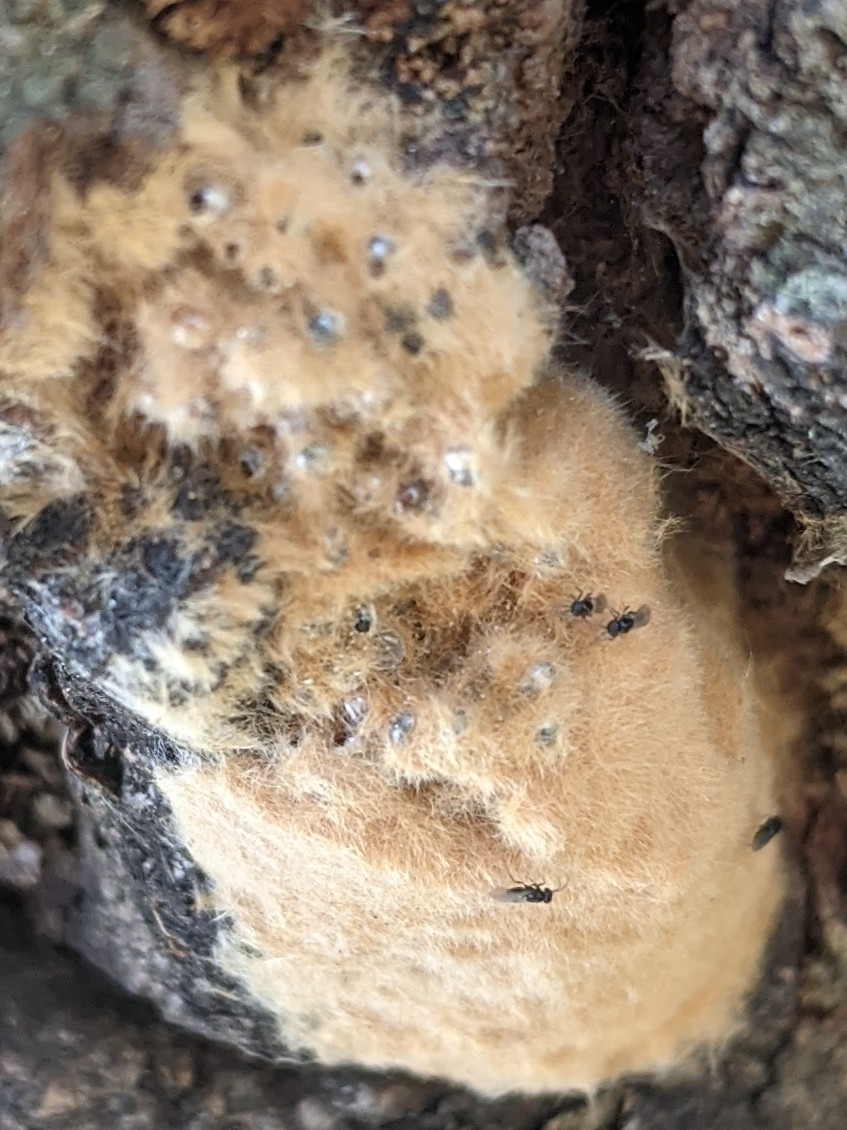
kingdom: Animalia
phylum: Arthropoda
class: Insecta
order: Hymenoptera
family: Encyrtidae
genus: Ooencyrtus
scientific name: Ooencyrtus kuvanae
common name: Wasp
